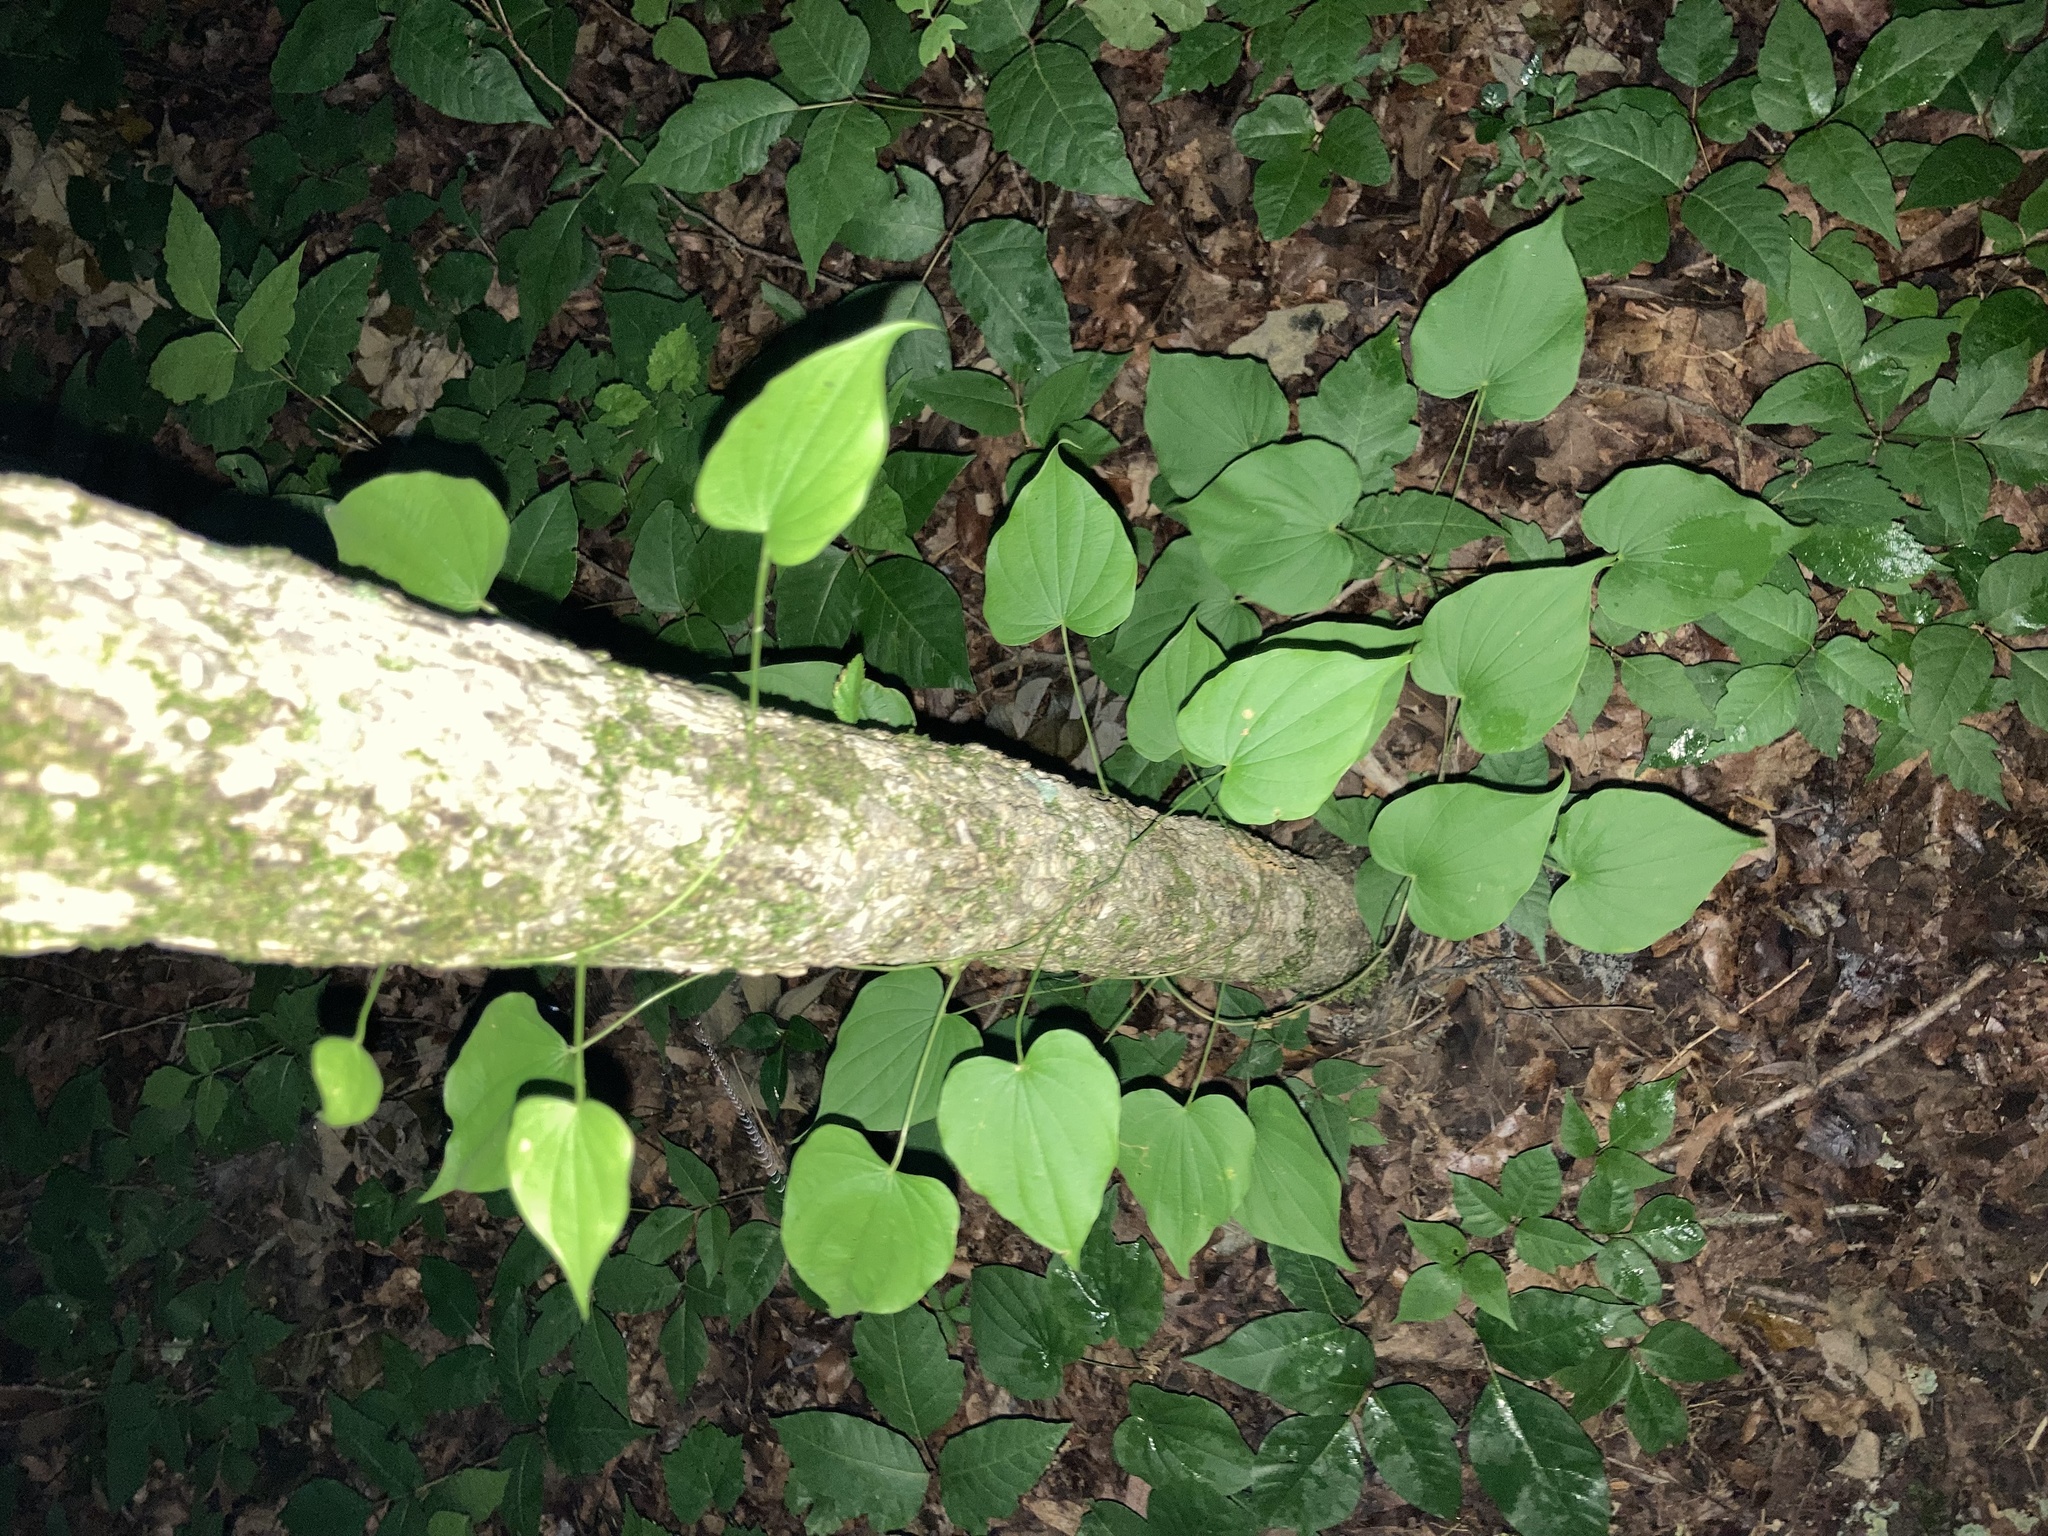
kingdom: Plantae
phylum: Tracheophyta
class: Liliopsida
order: Dioscoreales
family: Dioscoreaceae
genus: Dioscorea
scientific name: Dioscorea villosa
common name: Wild yam
